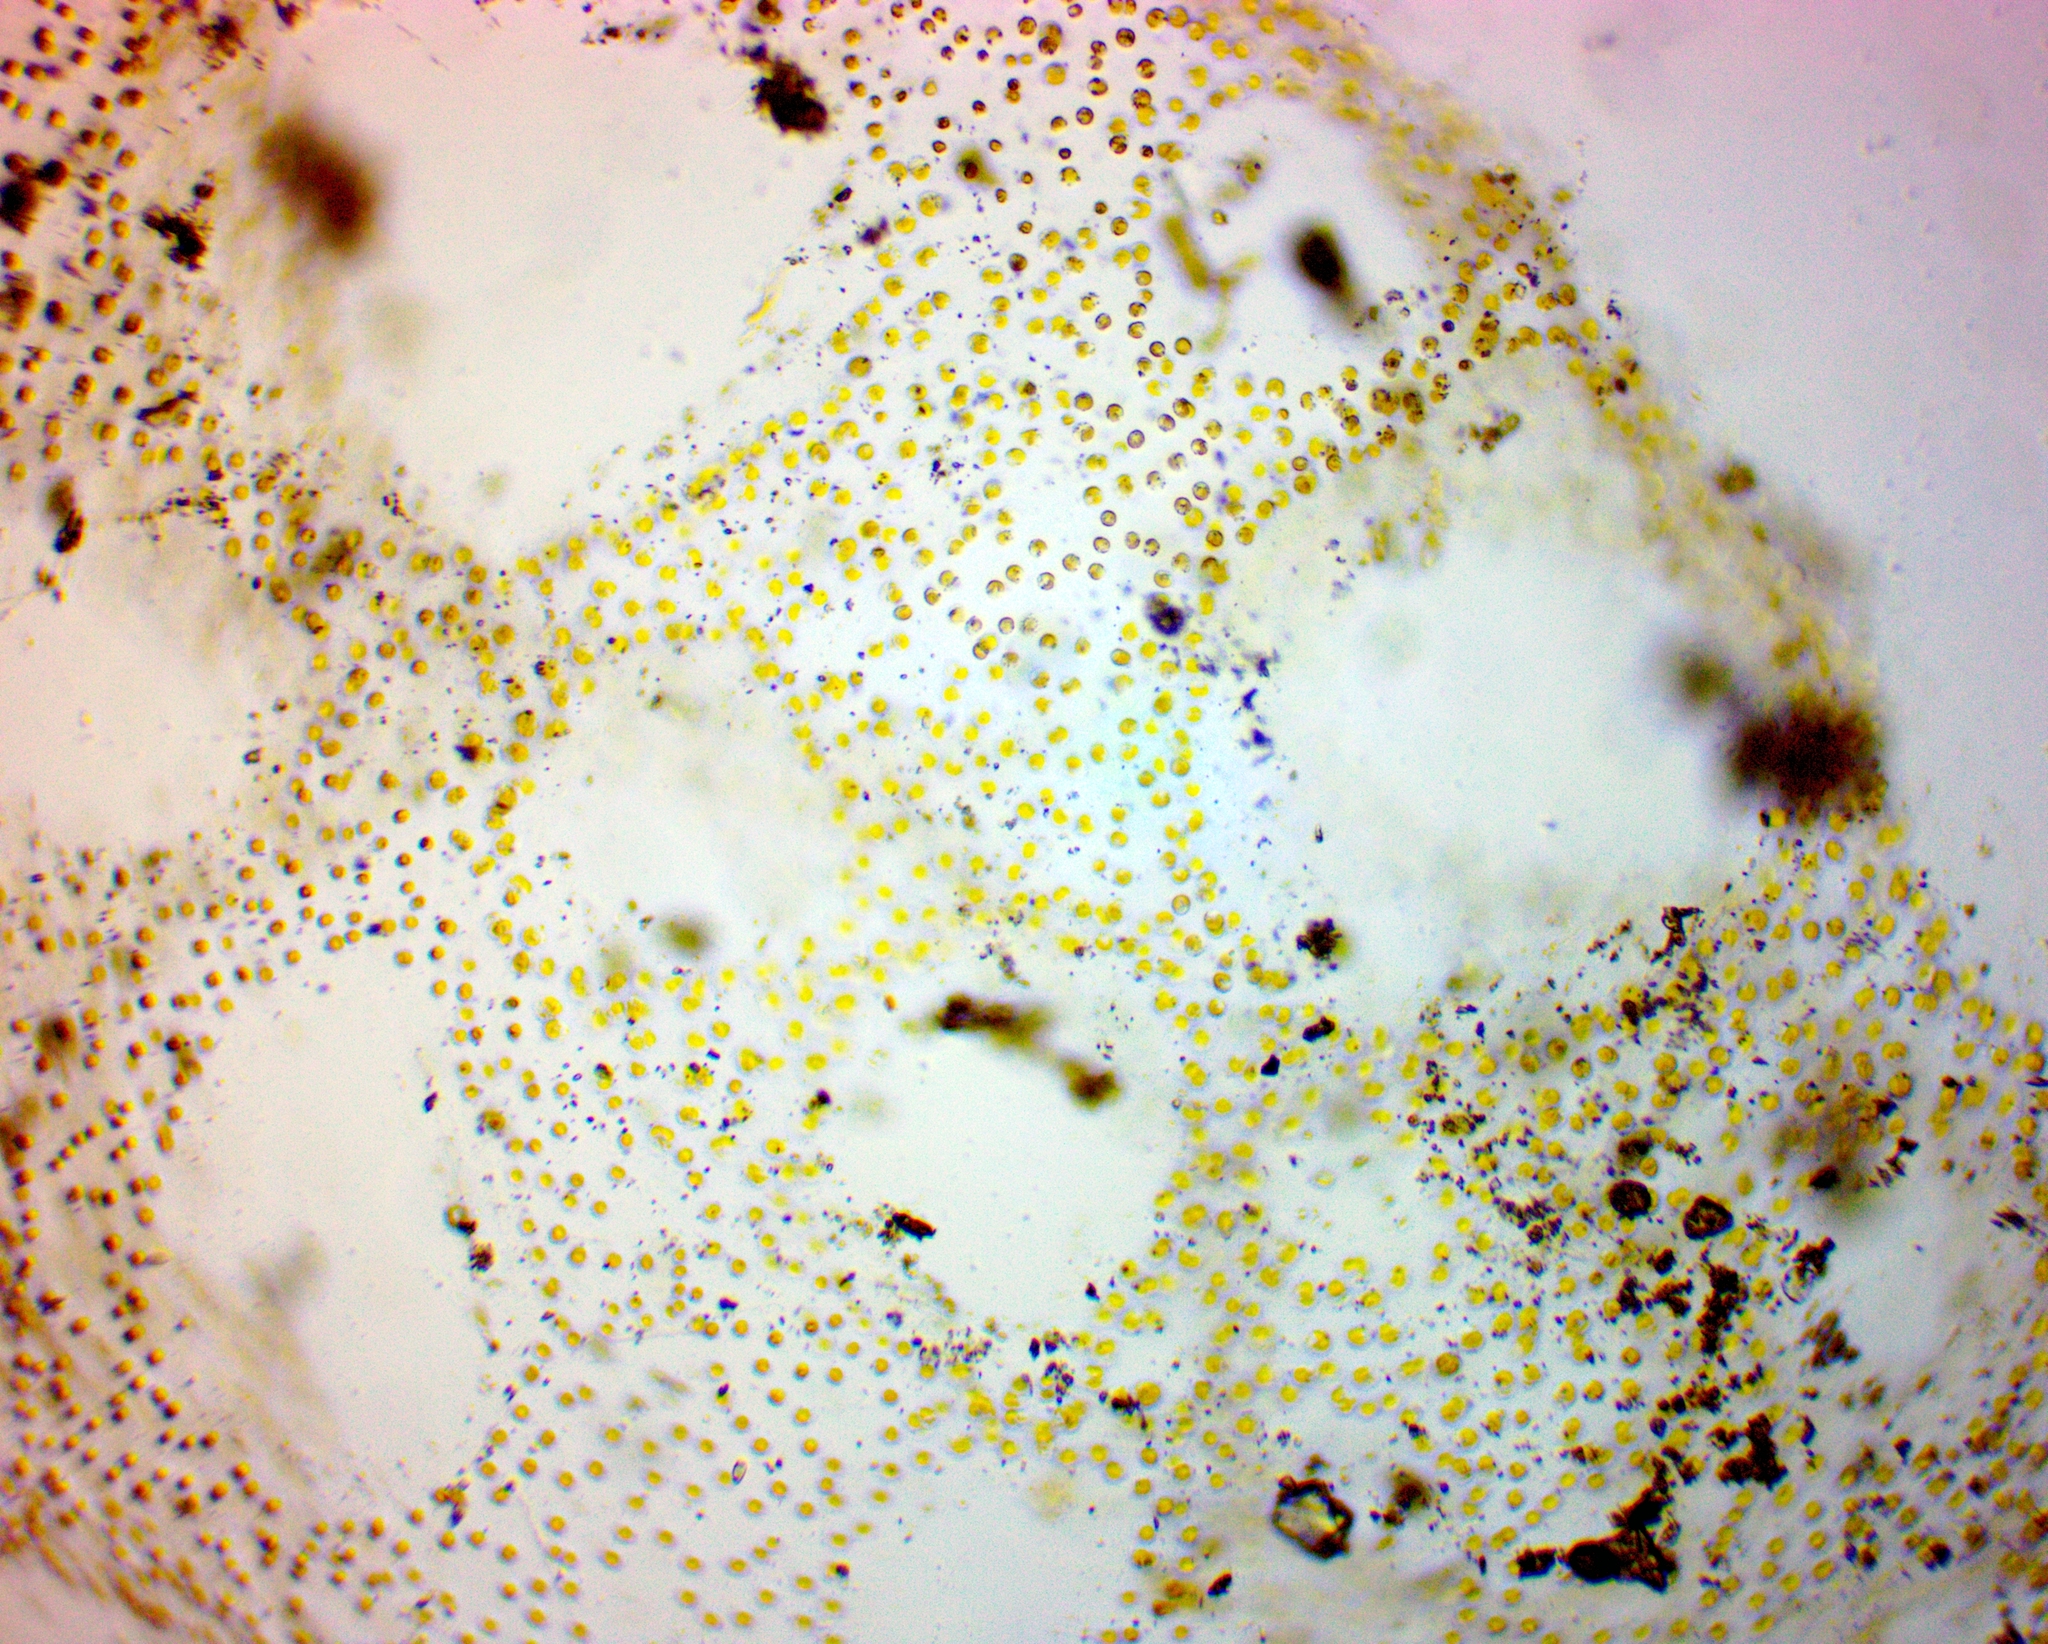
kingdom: Chromista
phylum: Ochrophyta
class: Chrysophyceae
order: Chromulinales
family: Chrysocapsaceae
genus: Heimiochrysis
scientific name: Heimiochrysis
